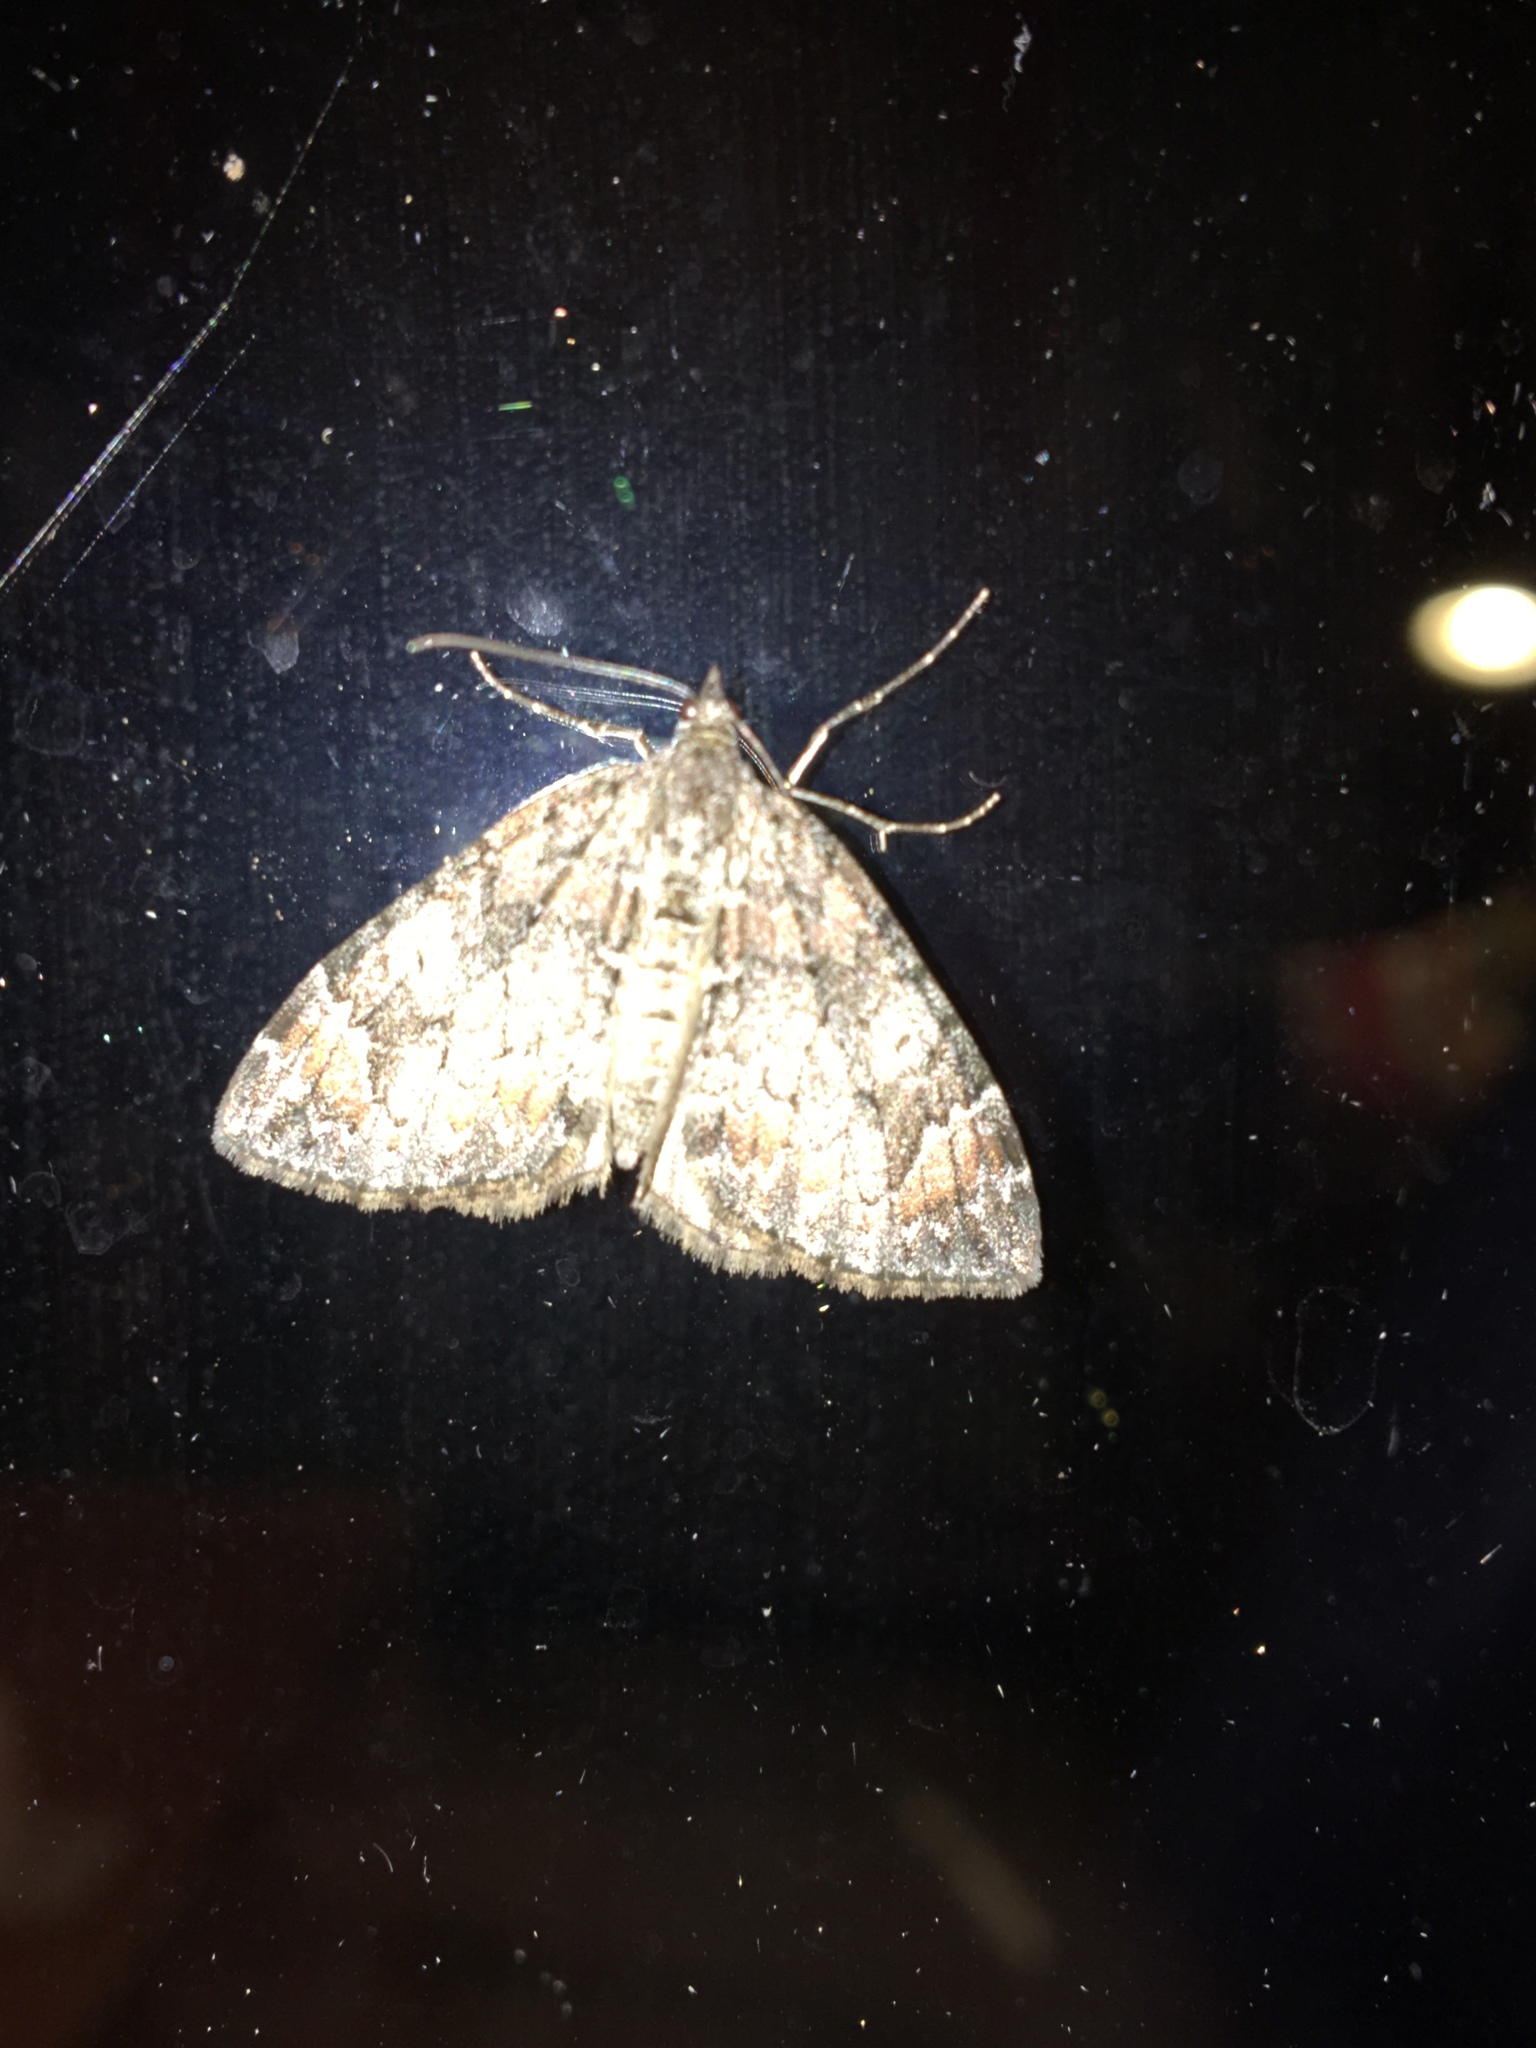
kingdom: Animalia
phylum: Arthropoda
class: Insecta
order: Lepidoptera
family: Geometridae
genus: Dysstroma
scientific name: Dysstroma citrata
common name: Dark marbled carpet
